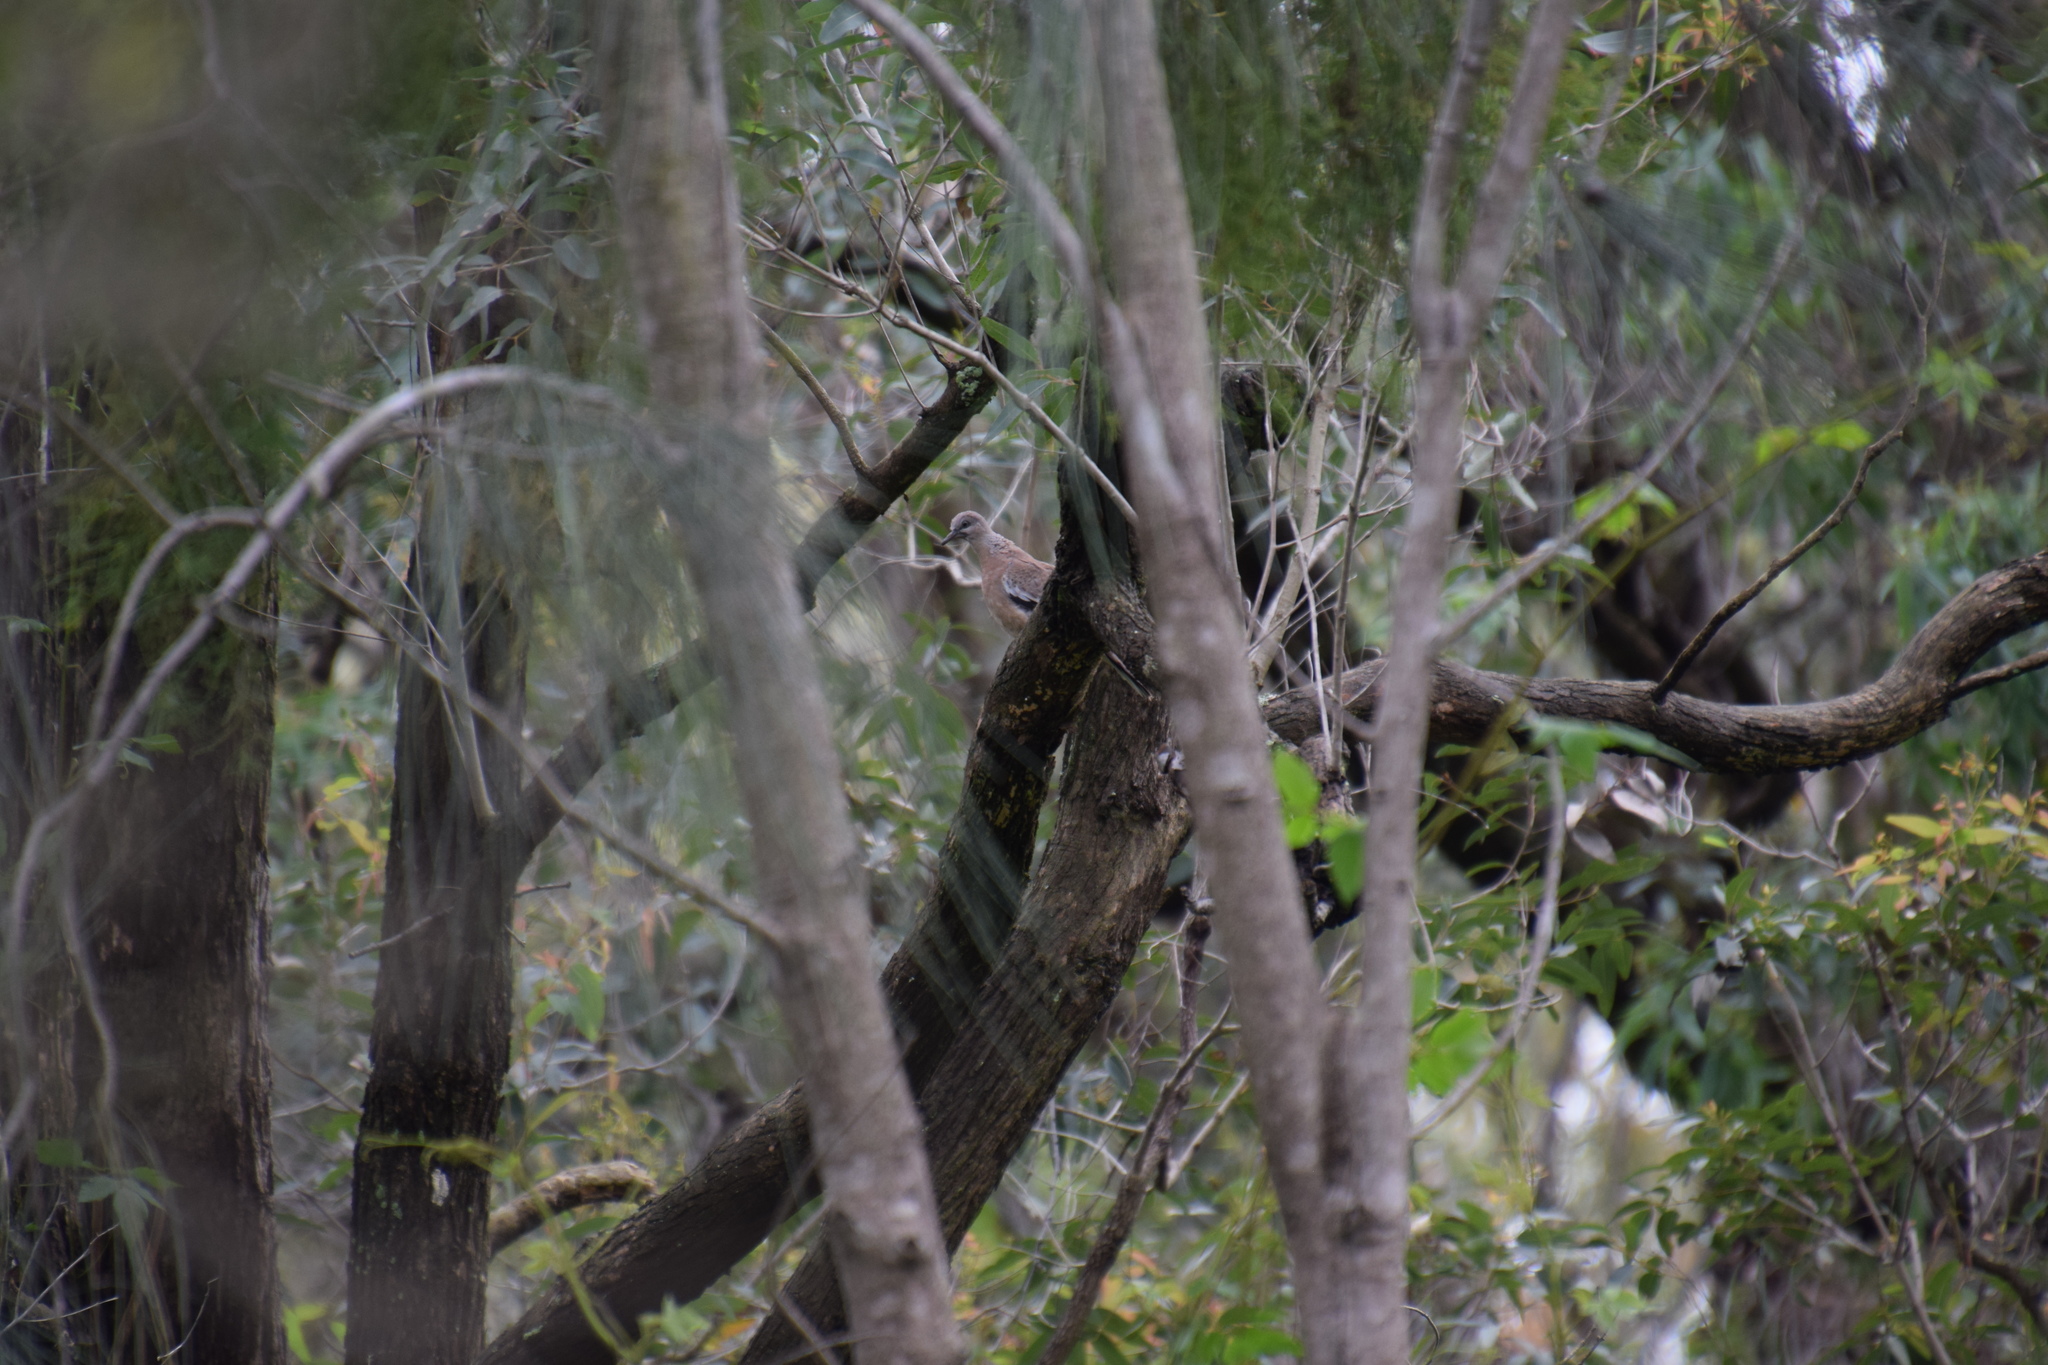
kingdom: Animalia
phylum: Chordata
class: Aves
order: Columbiformes
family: Columbidae
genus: Spilopelia
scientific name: Spilopelia chinensis
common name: Spotted dove
